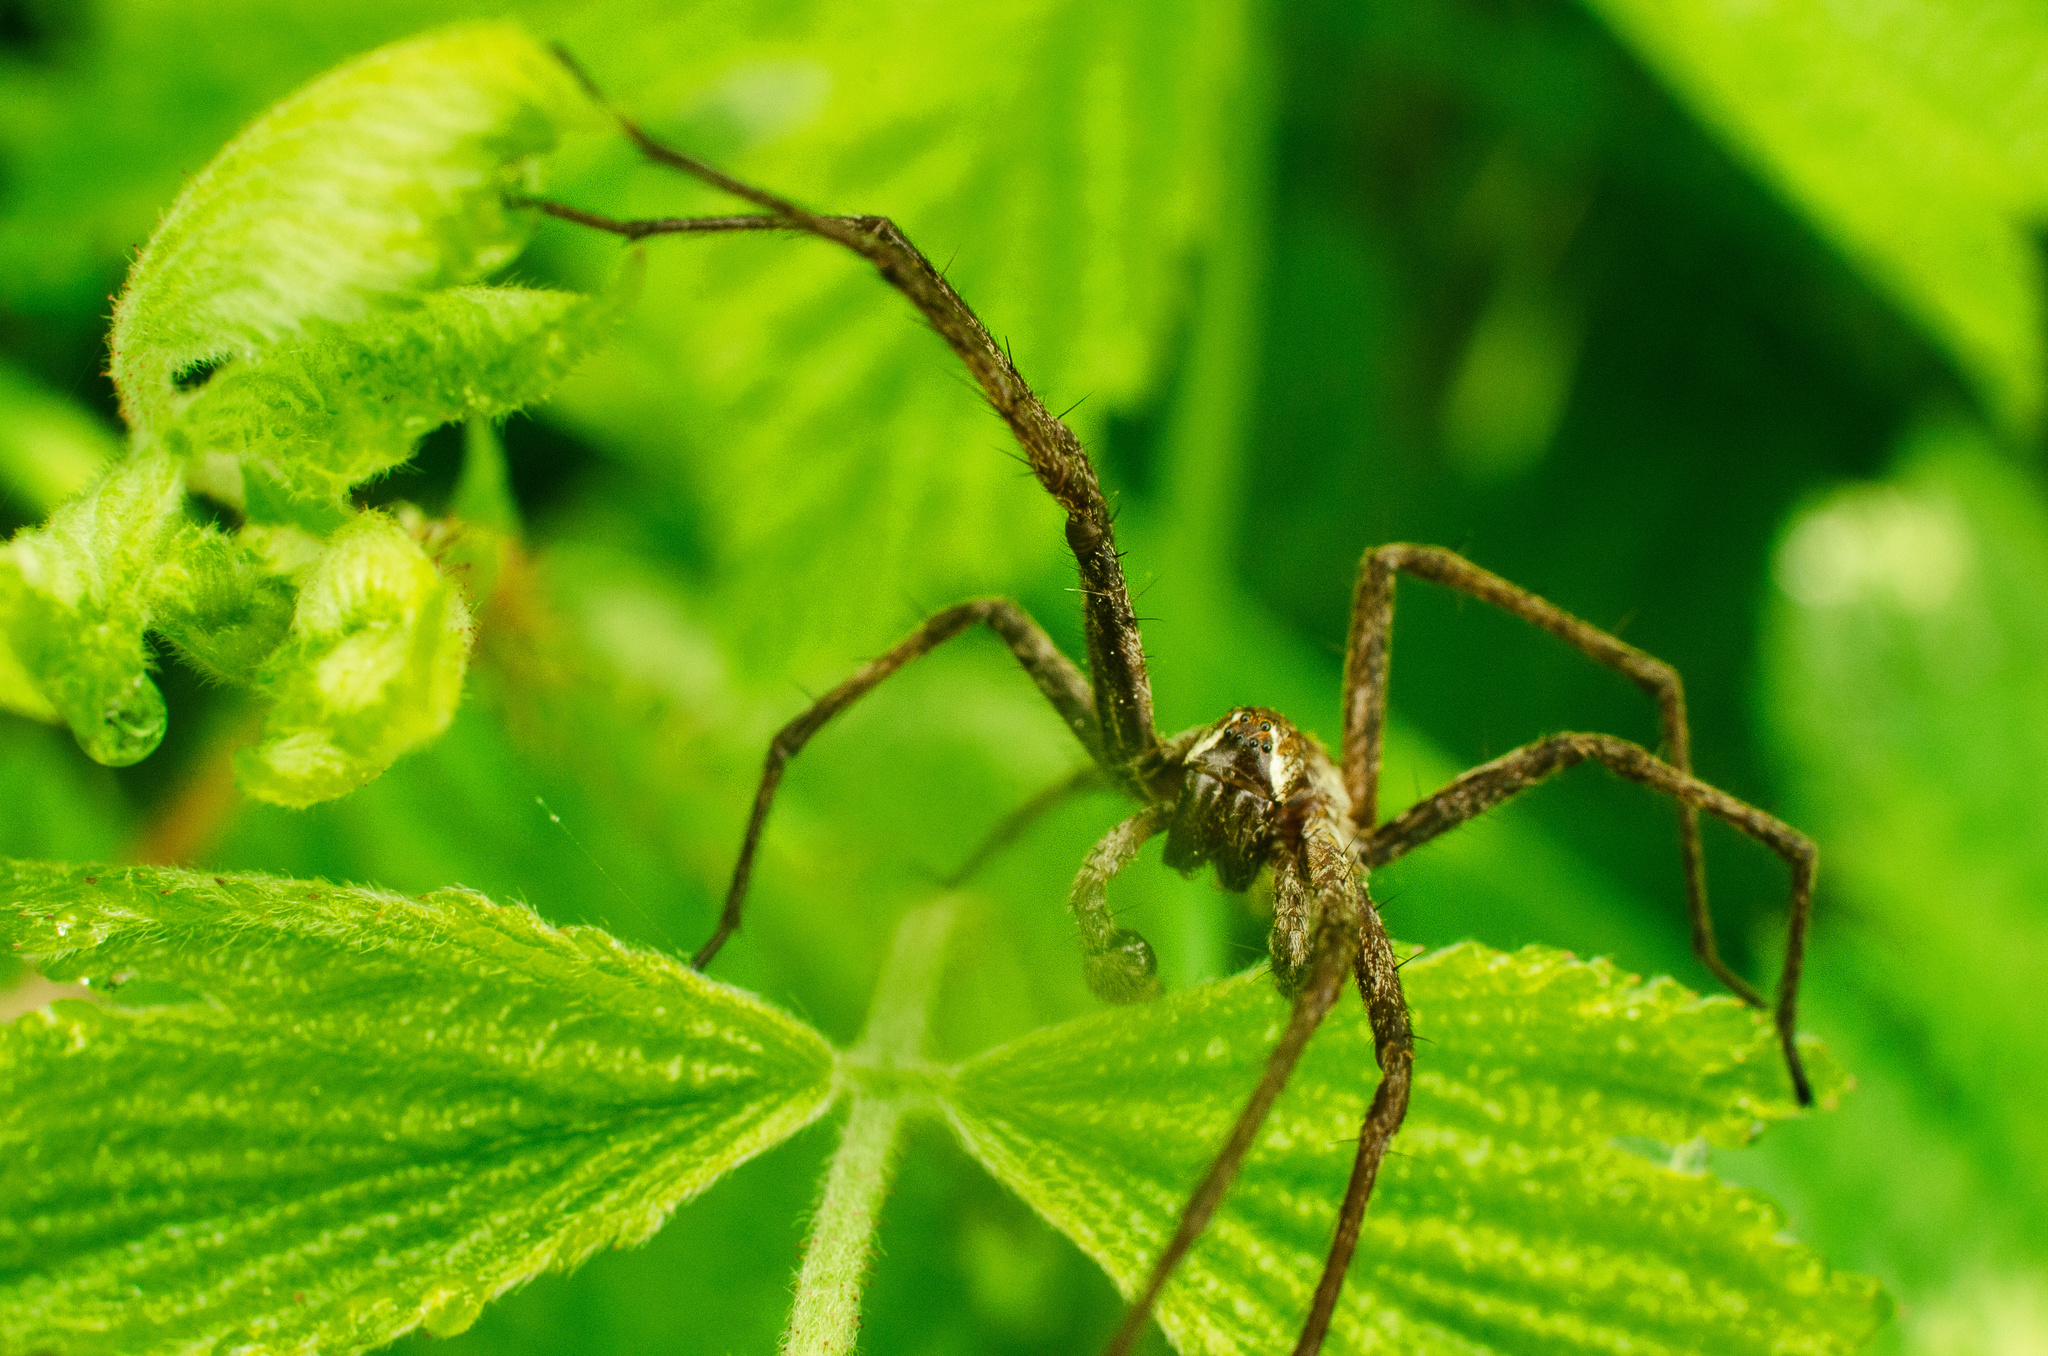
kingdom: Animalia
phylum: Arthropoda
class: Arachnida
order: Araneae
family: Pisauridae
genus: Pisaura
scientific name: Pisaura mirabilis
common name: Tent spider
